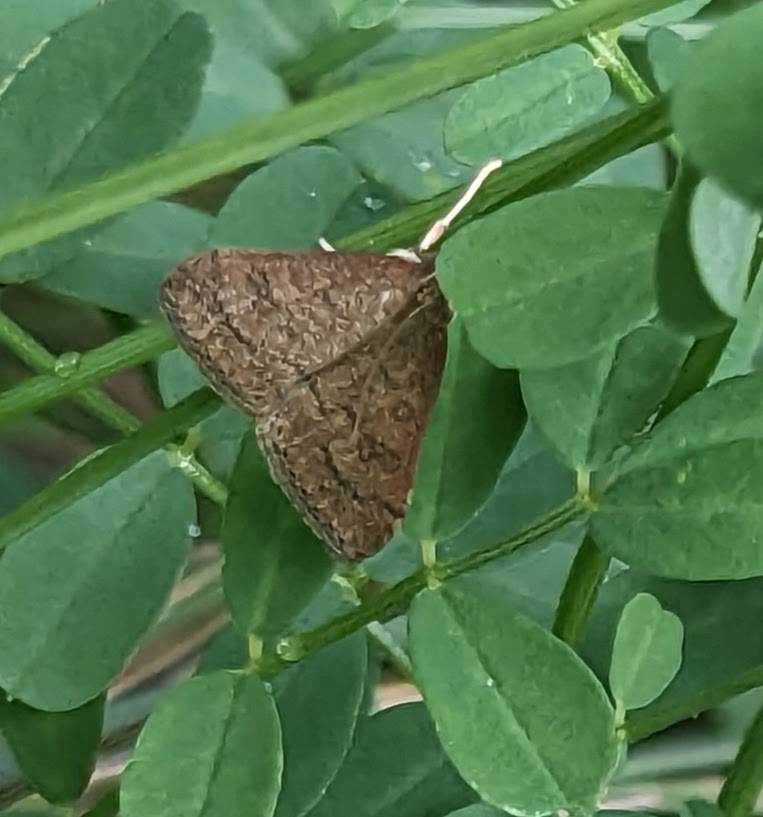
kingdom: Animalia
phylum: Arthropoda
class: Insecta
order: Lepidoptera
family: Crambidae
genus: Udea
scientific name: Udea rubigalis
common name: Celery leaftier moth
